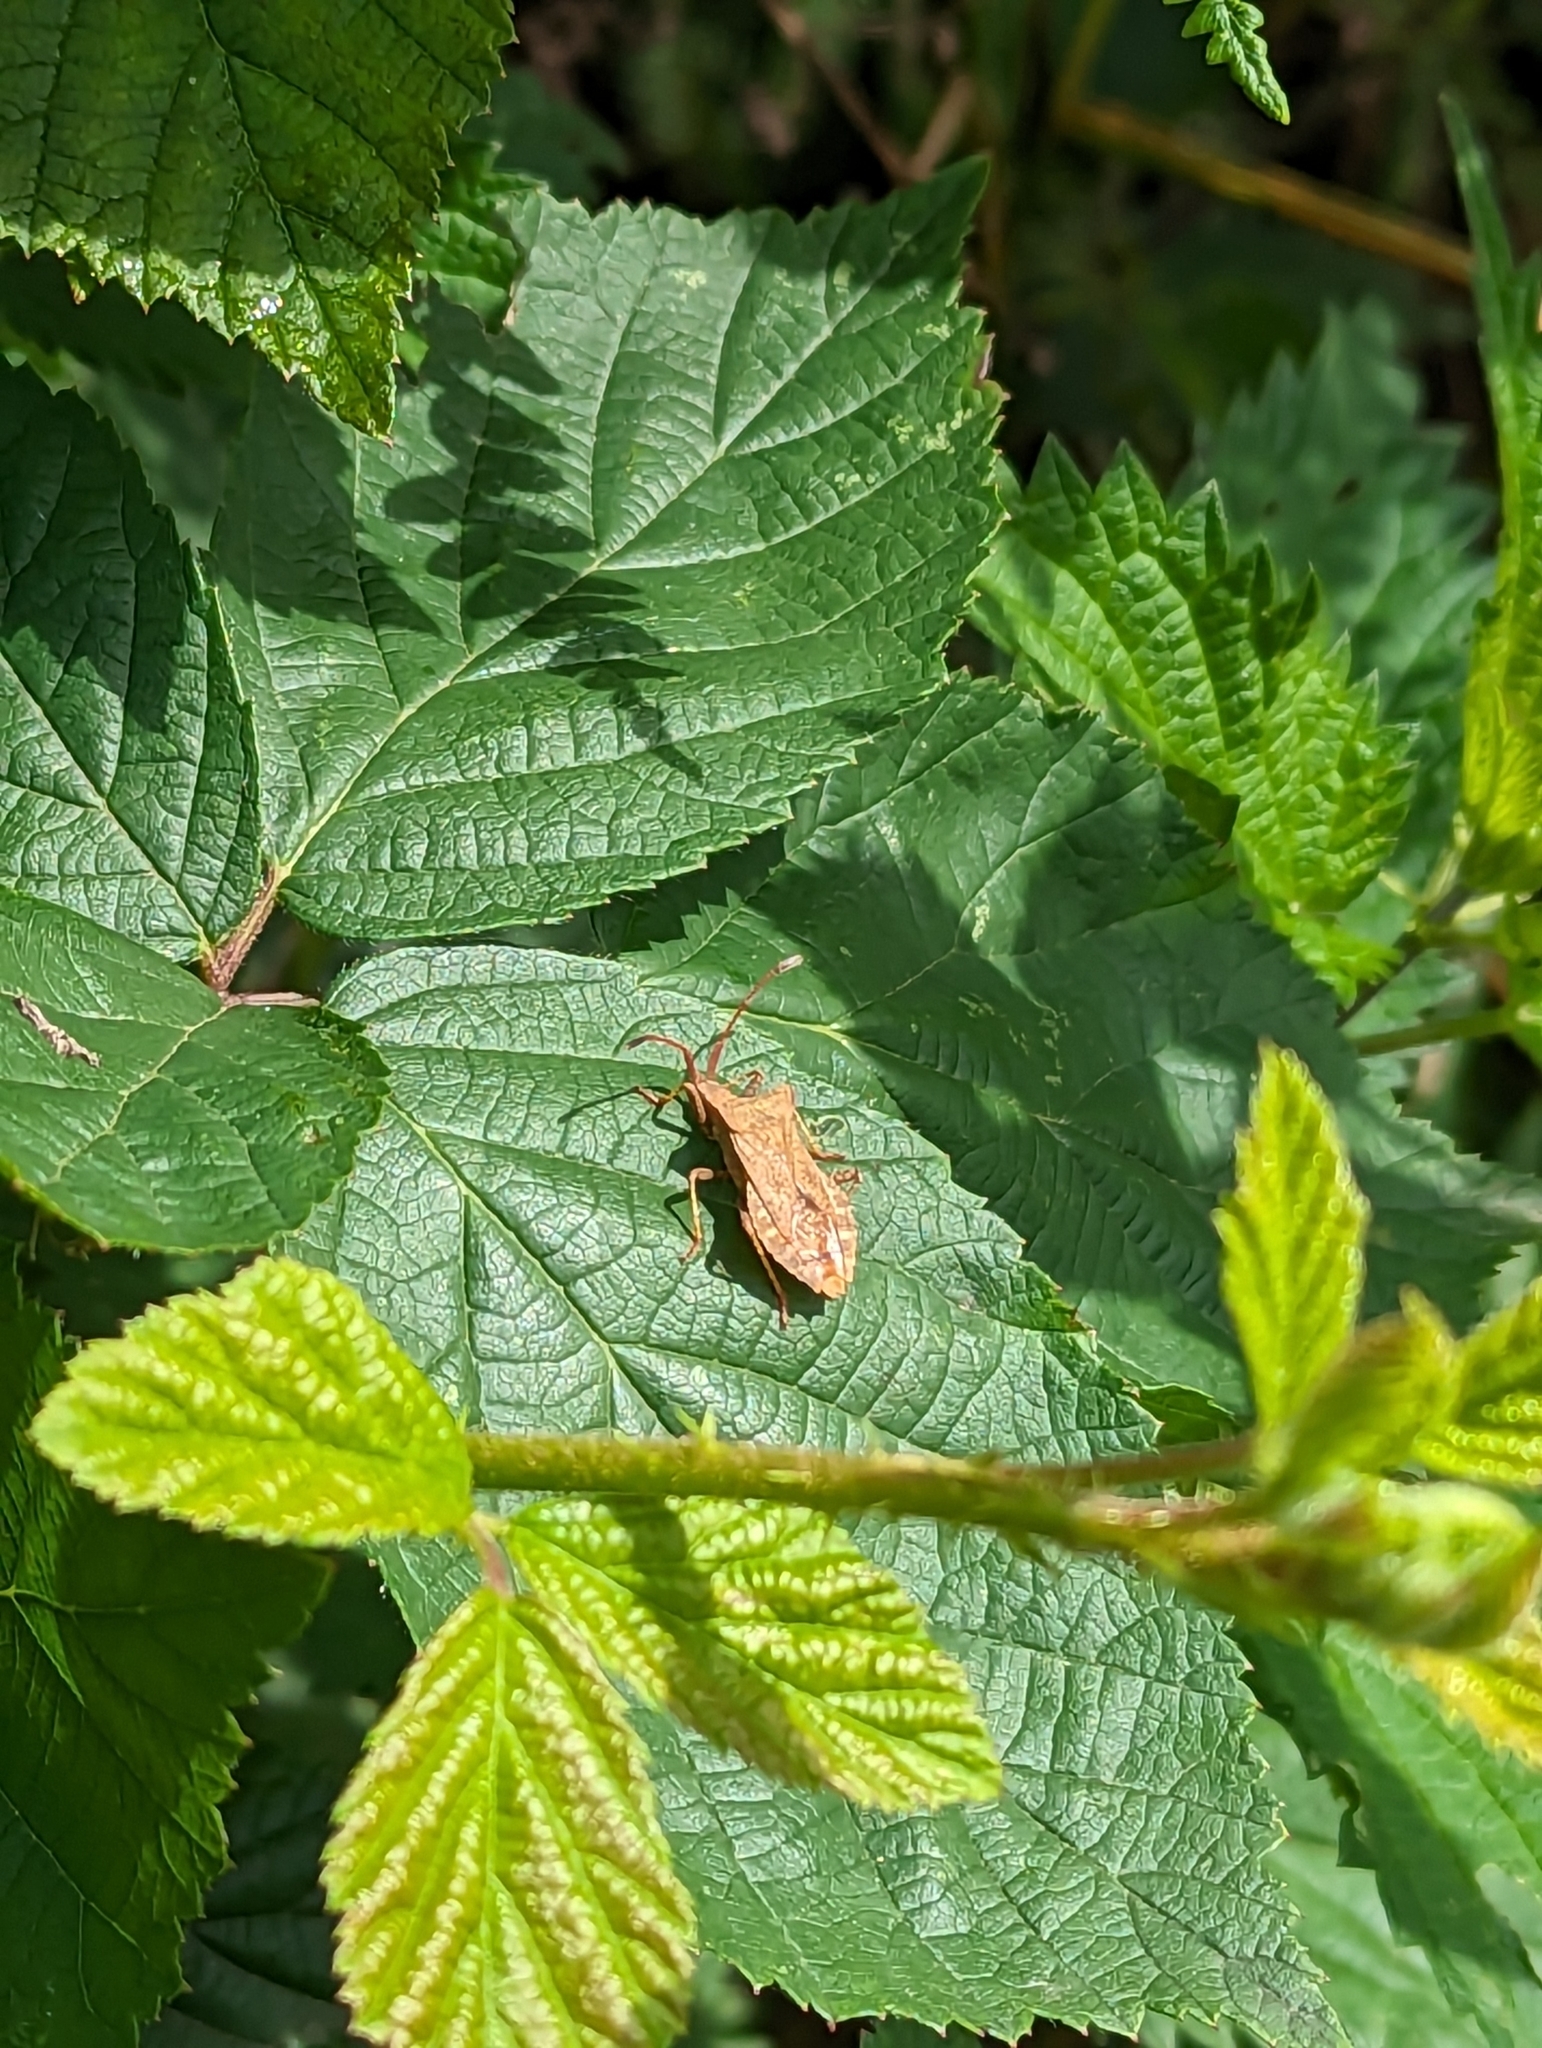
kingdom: Animalia
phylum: Arthropoda
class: Insecta
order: Hemiptera
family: Coreidae
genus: Coreus
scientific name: Coreus marginatus
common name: Dock bug
